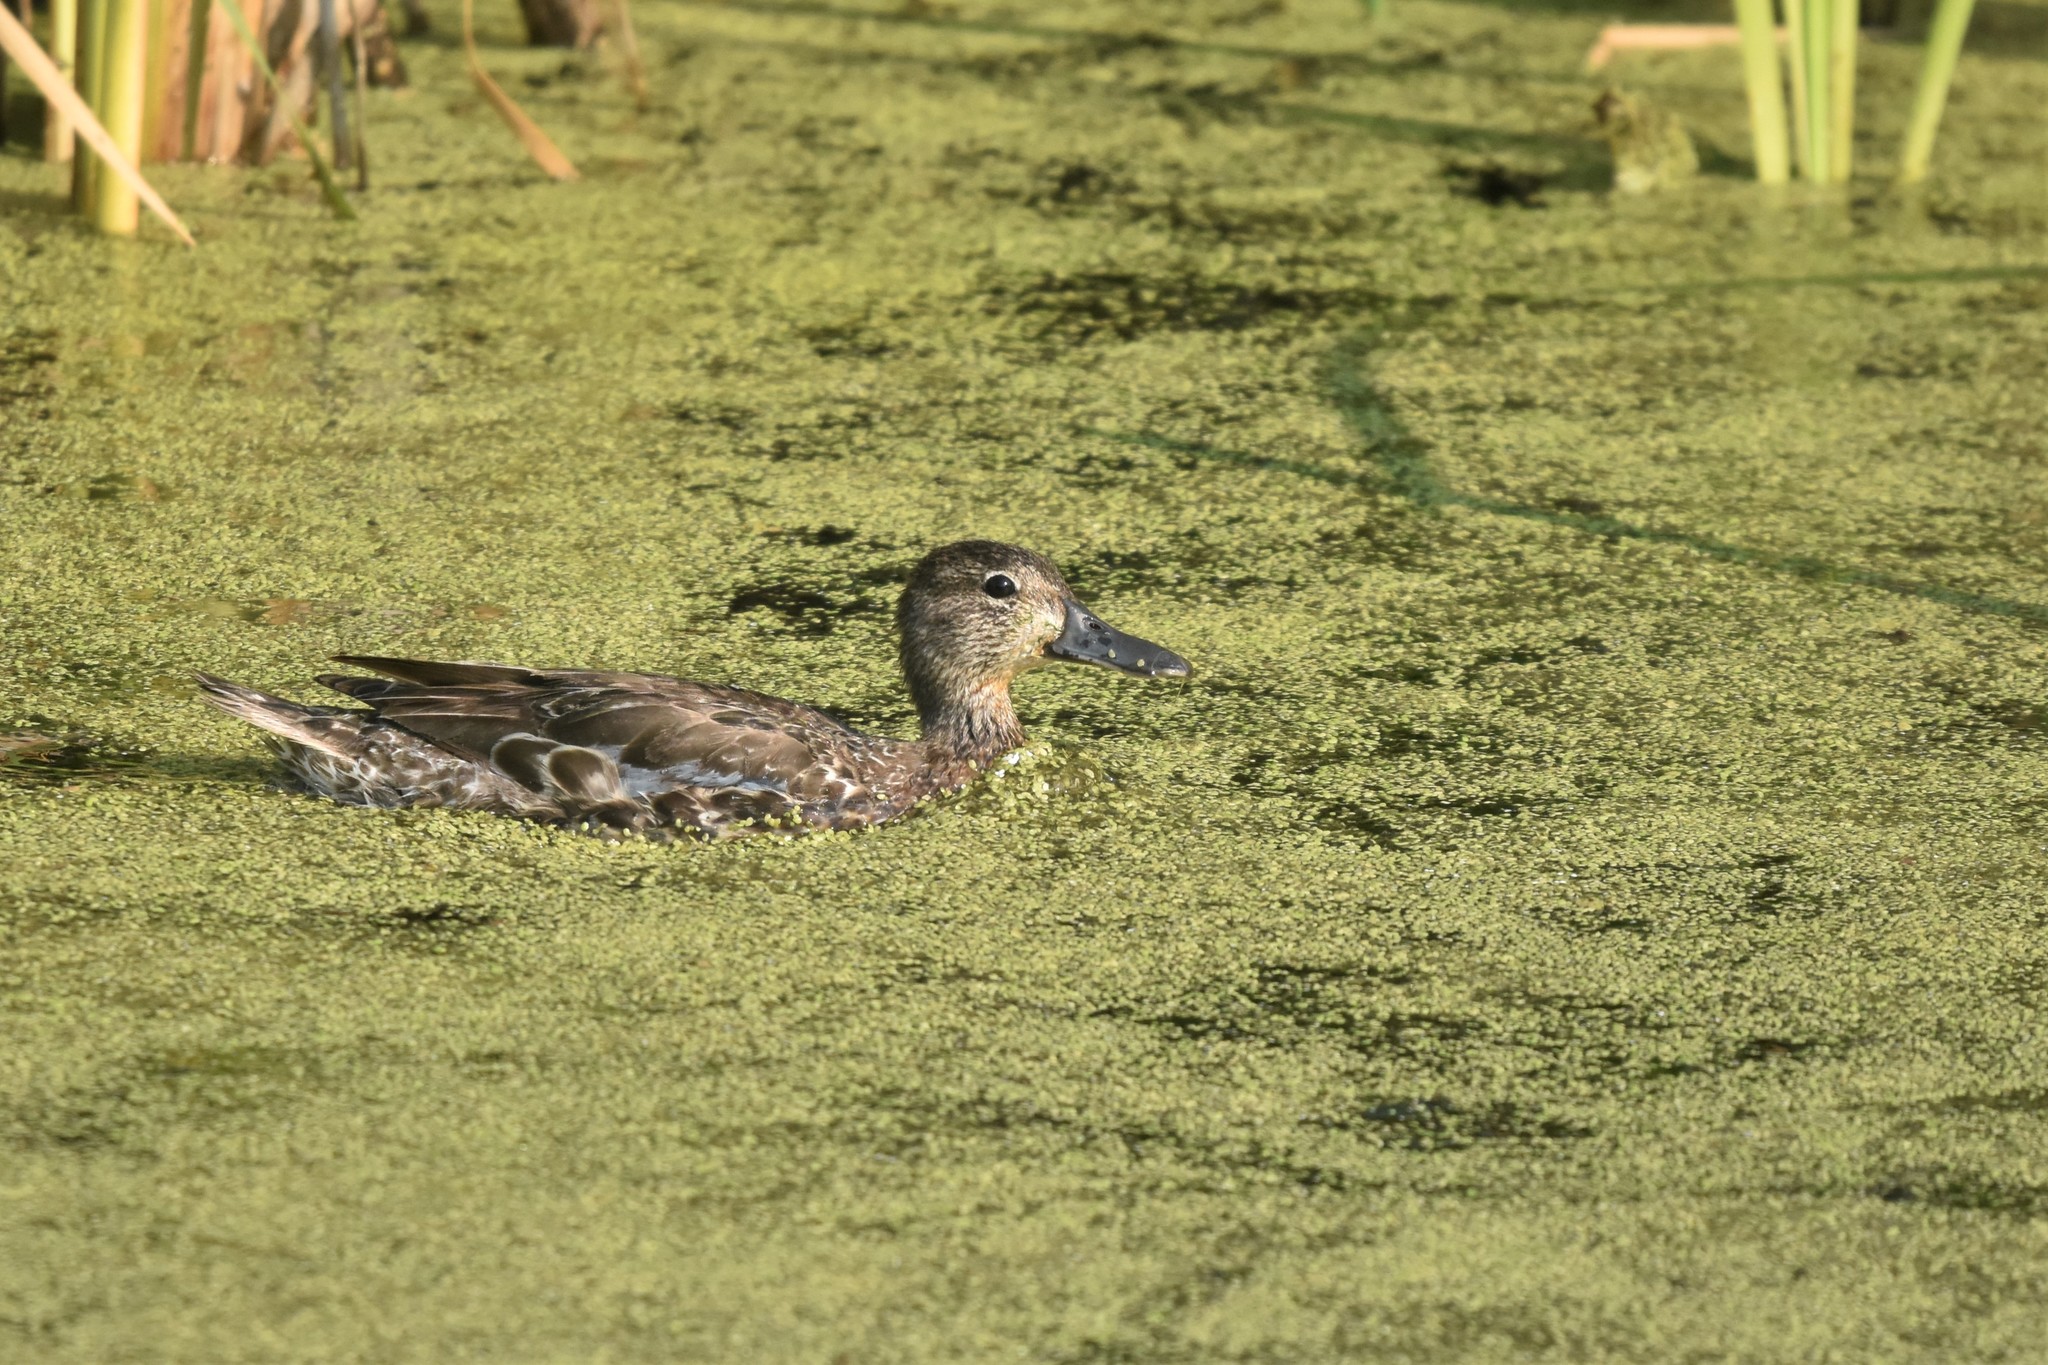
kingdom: Animalia
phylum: Chordata
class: Aves
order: Anseriformes
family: Anatidae
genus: Spatula
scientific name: Spatula discors
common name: Blue-winged teal
